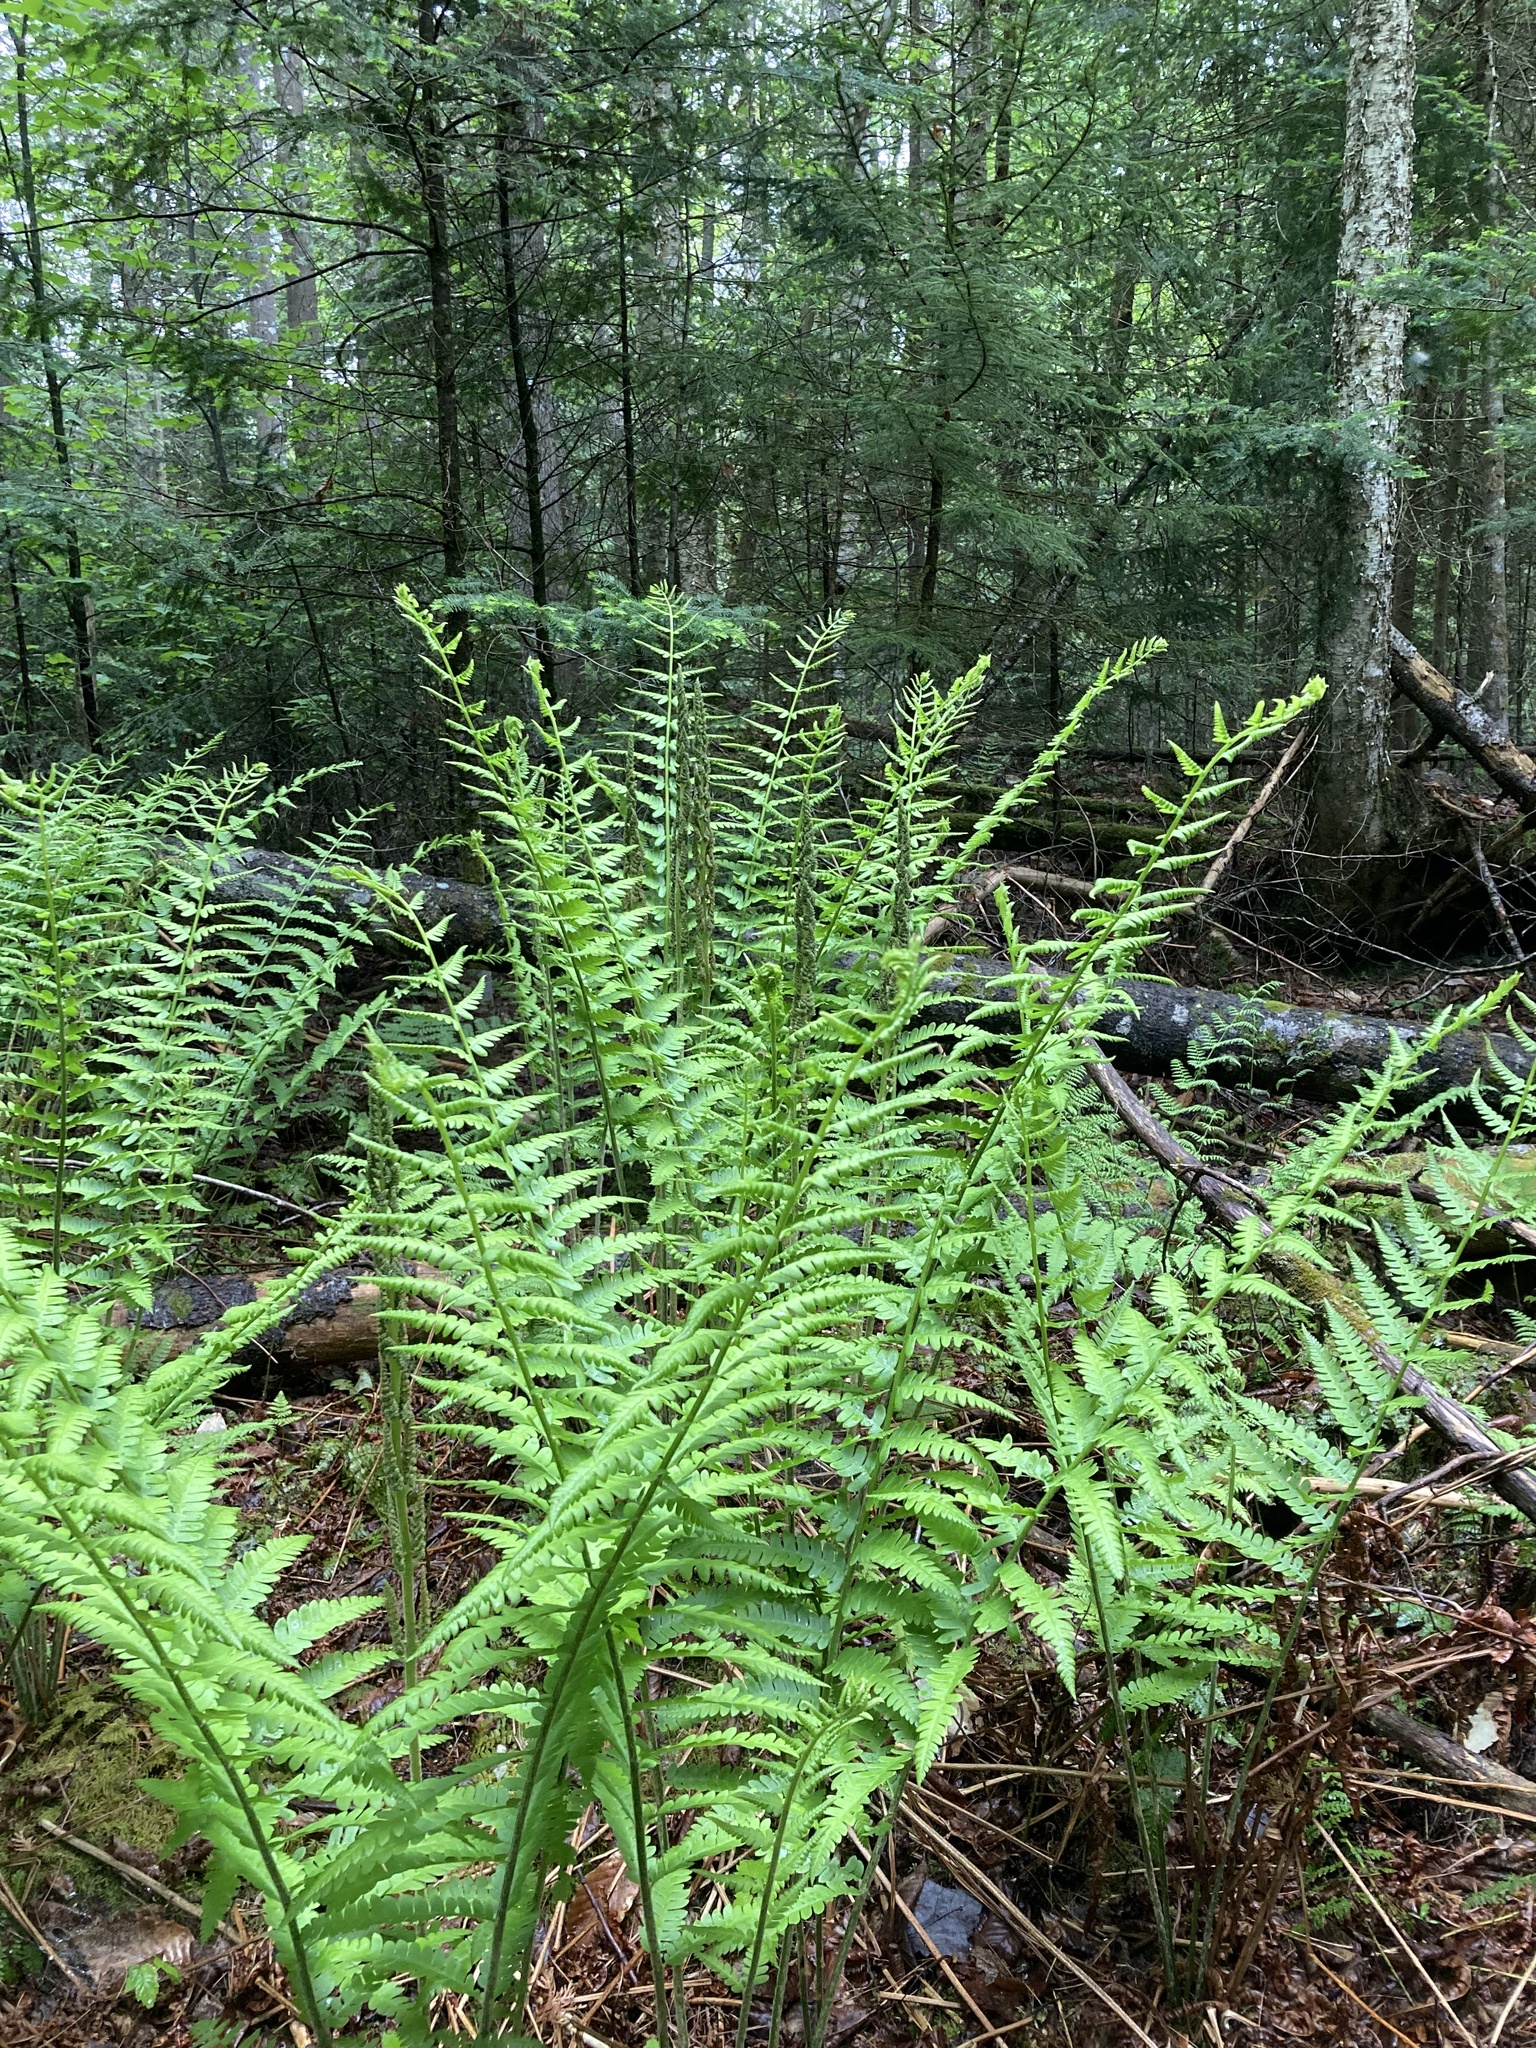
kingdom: Plantae
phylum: Tracheophyta
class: Polypodiopsida
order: Osmundales
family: Osmundaceae
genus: Osmundastrum
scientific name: Osmundastrum cinnamomeum
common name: Cinnamon fern
